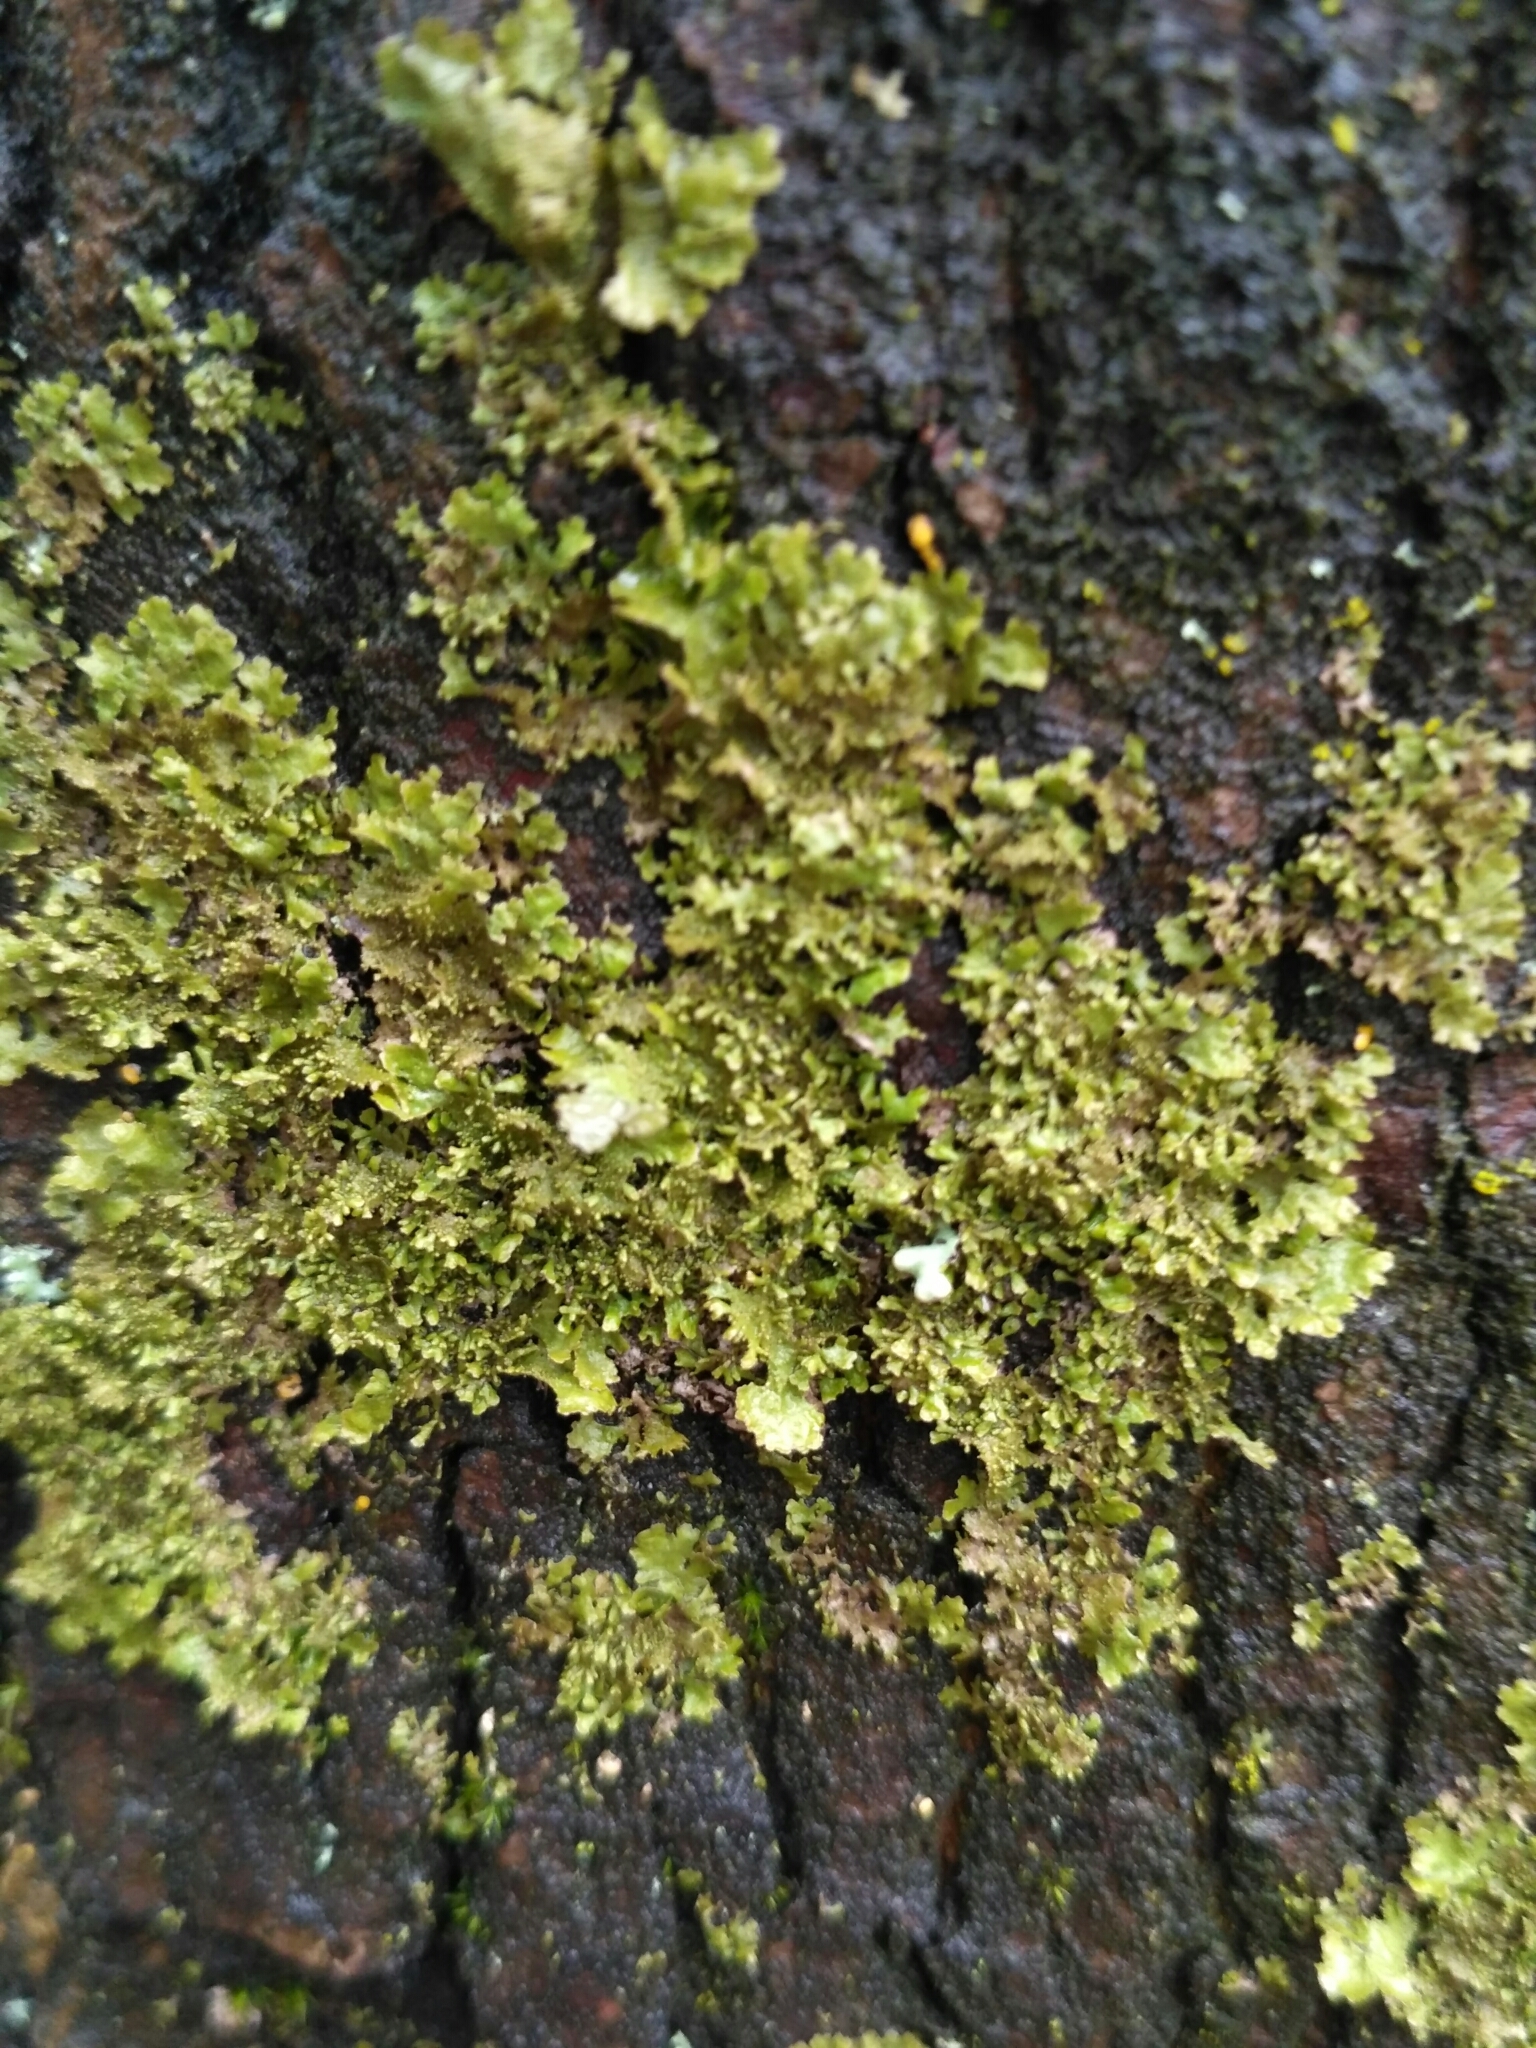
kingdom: Fungi
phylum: Ascomycota
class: Lecanoromycetes
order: Lecanorales
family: Parmeliaceae
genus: Melanohalea
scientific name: Melanohalea exasperatula
